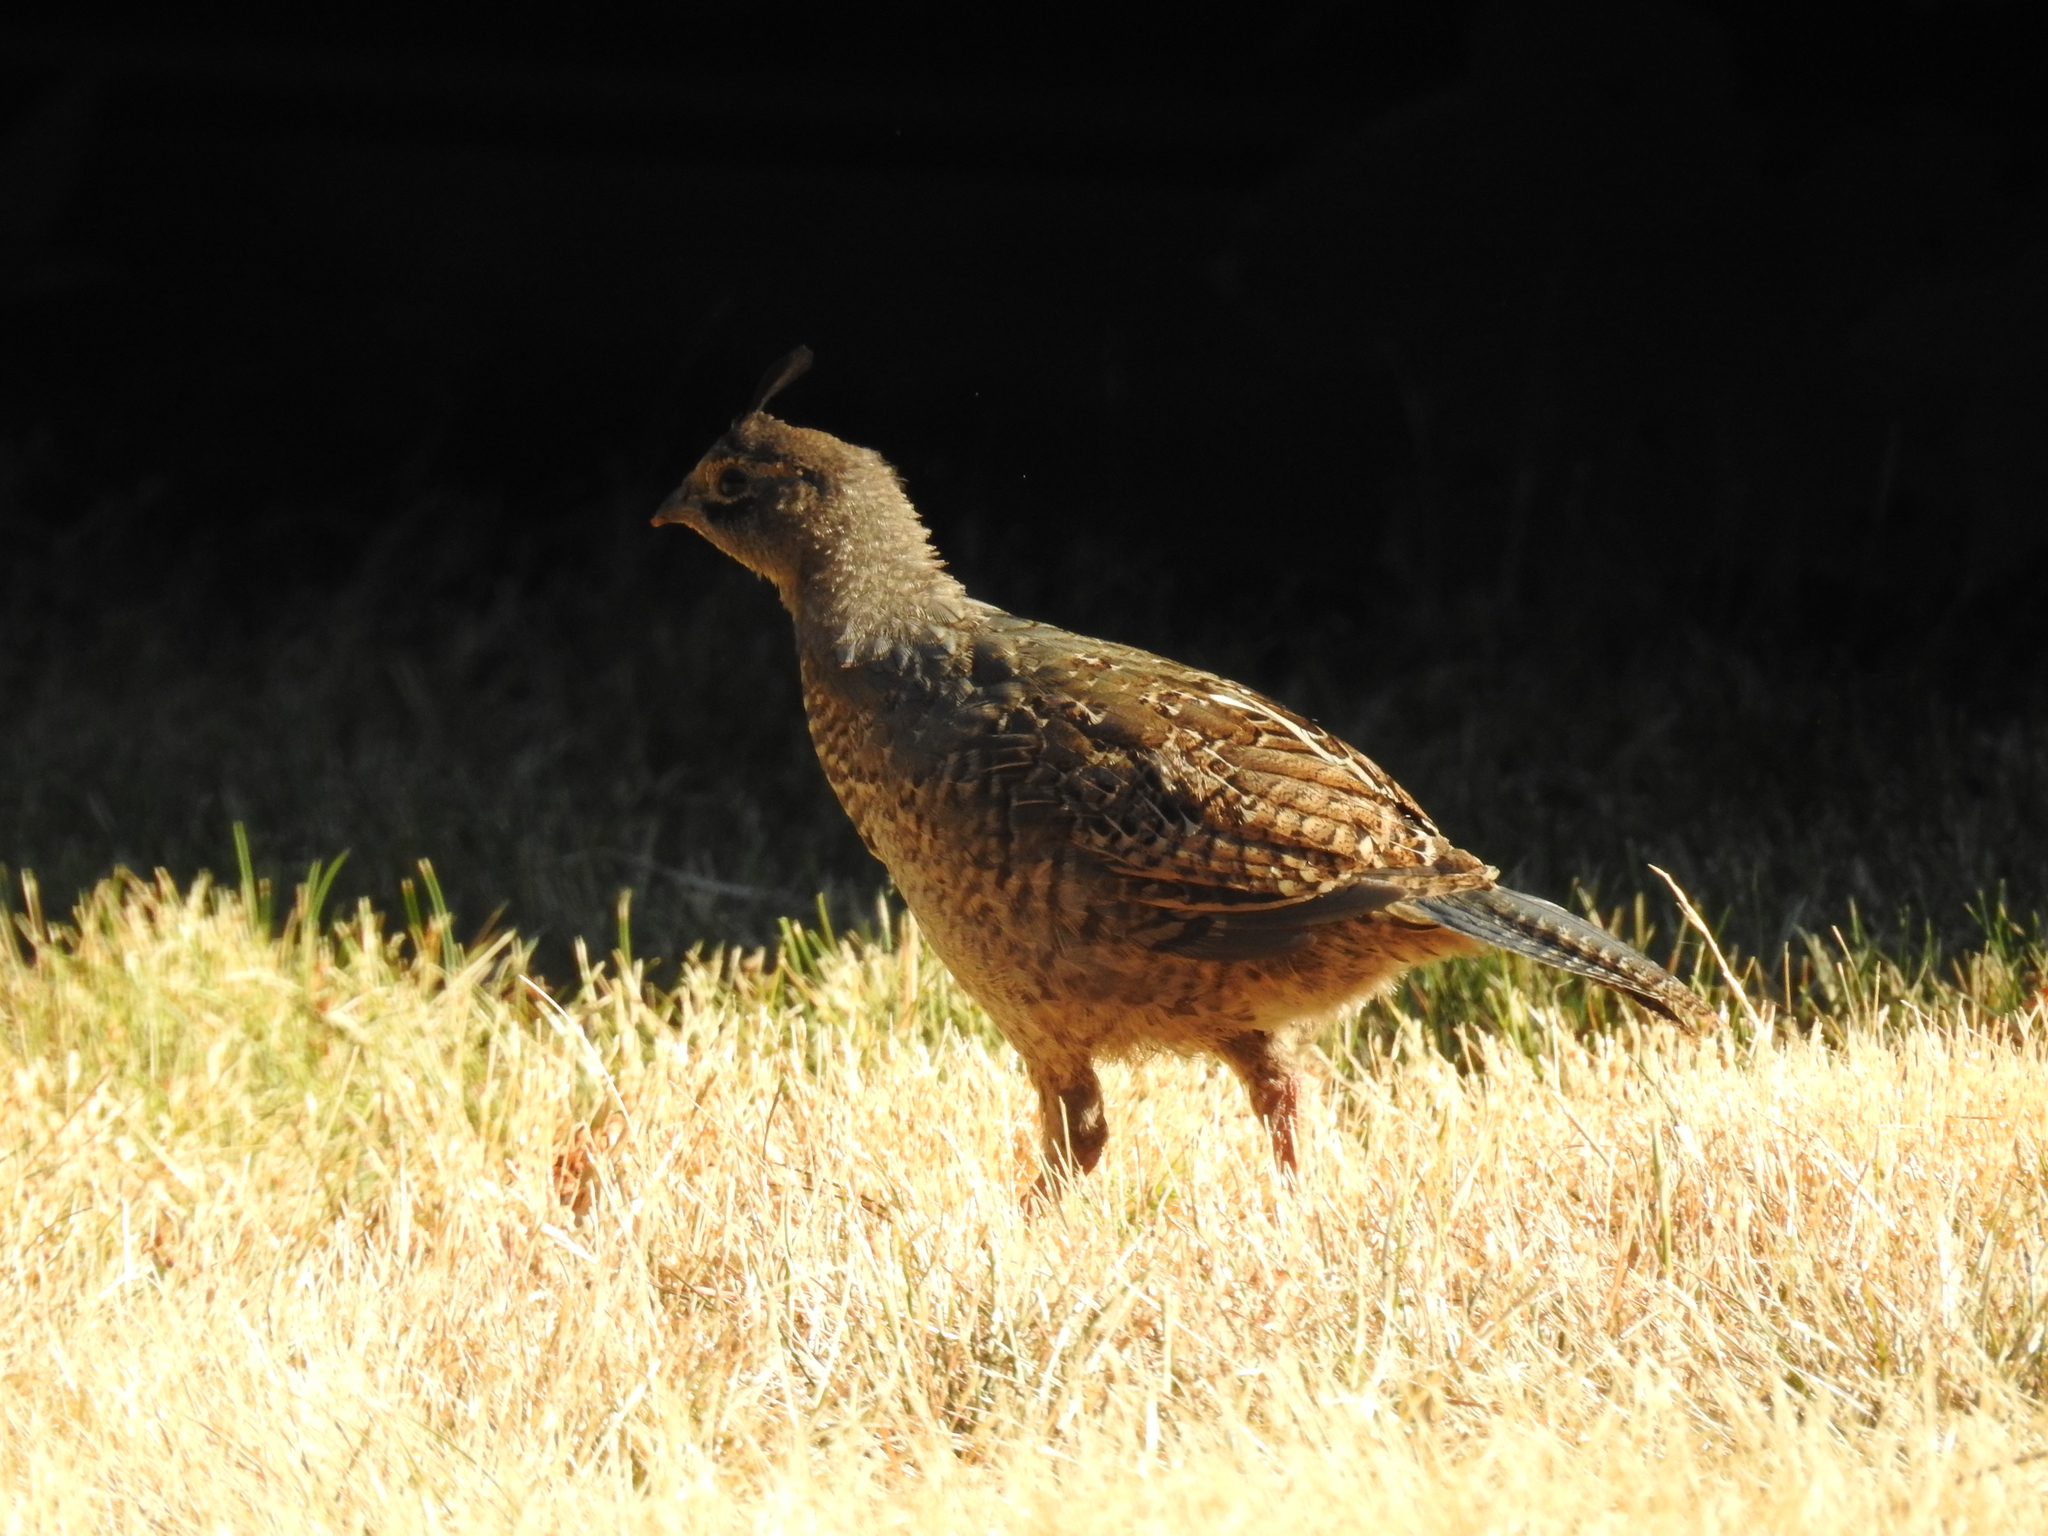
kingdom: Animalia
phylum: Chordata
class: Aves
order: Galliformes
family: Odontophoridae
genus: Callipepla
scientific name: Callipepla californica
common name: California quail
